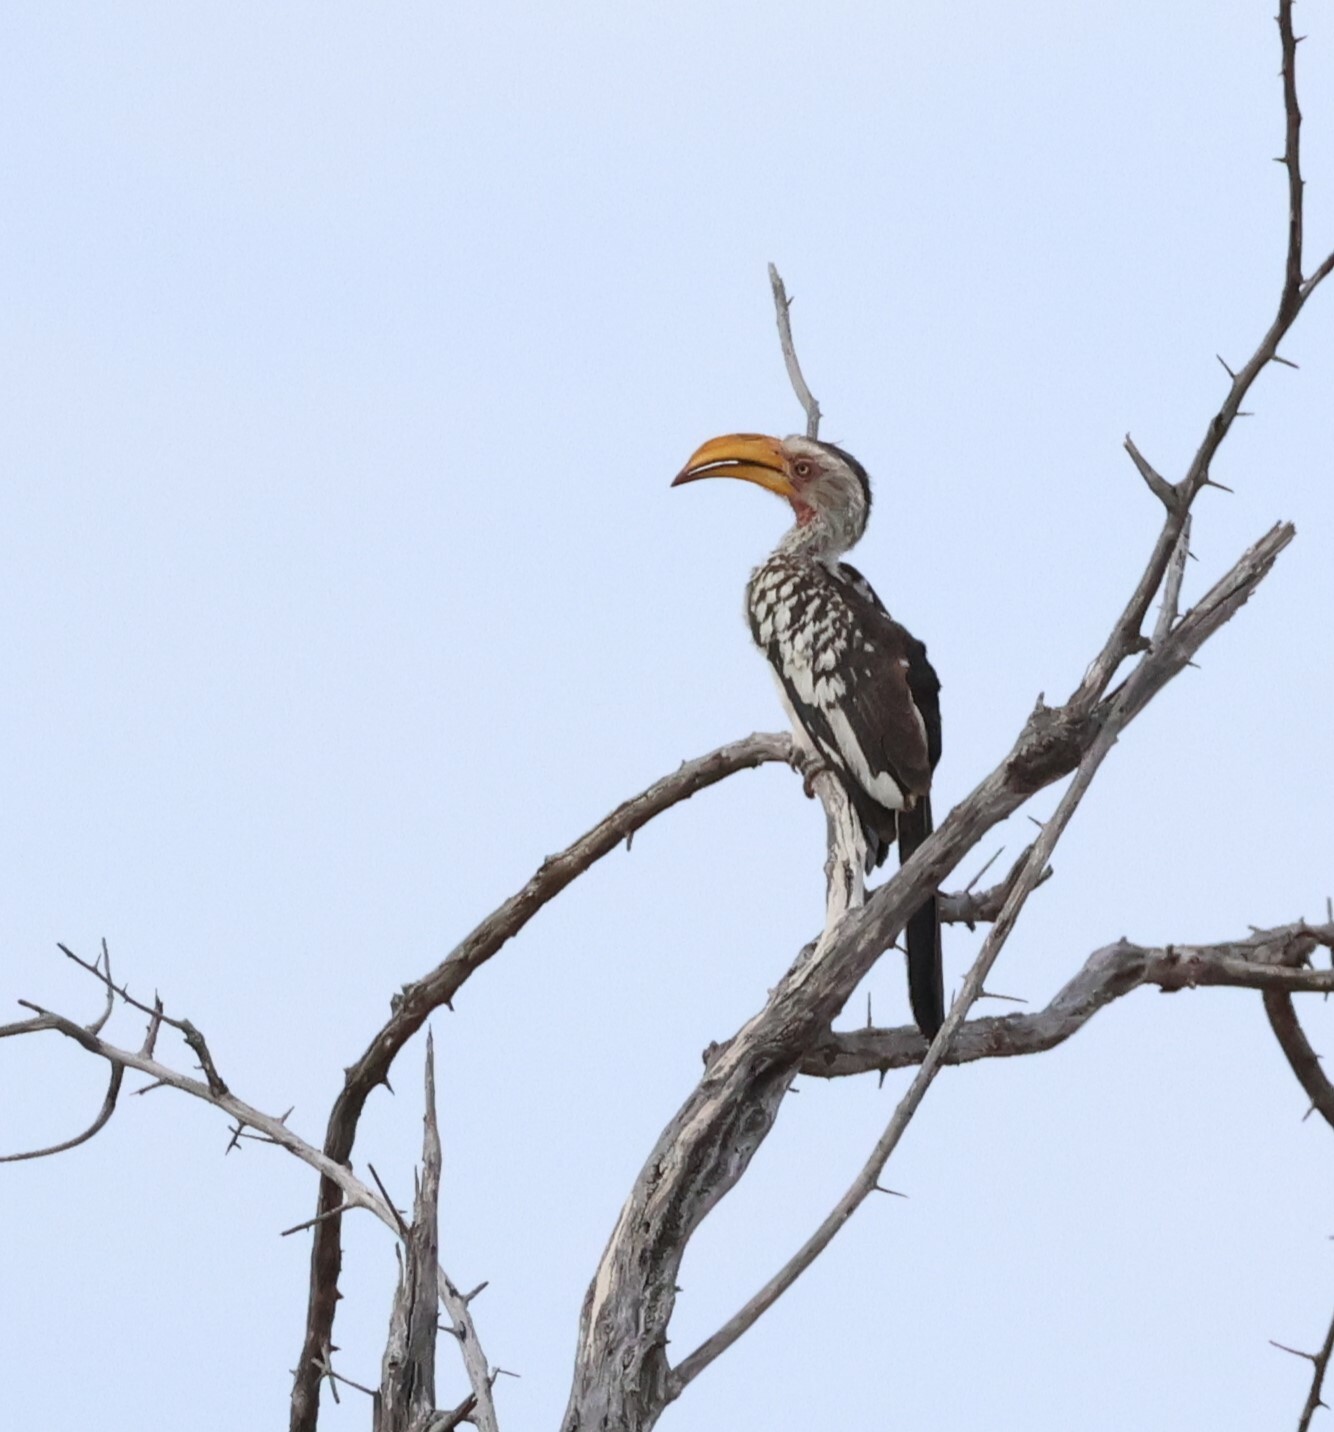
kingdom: Animalia
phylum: Chordata
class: Aves
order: Bucerotiformes
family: Bucerotidae
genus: Tockus
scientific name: Tockus leucomelas
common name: Southern yellow-billed hornbill
